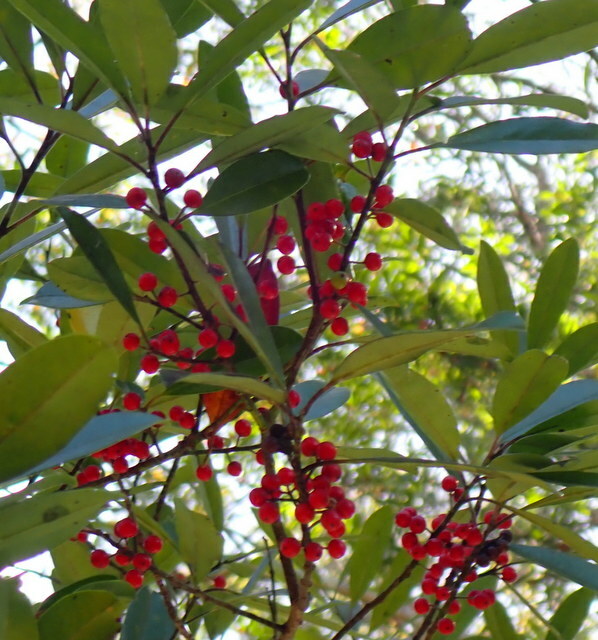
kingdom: Plantae
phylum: Tracheophyta
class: Magnoliopsida
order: Aquifoliales
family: Aquifoliaceae
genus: Ilex
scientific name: Ilex cassine
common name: Dahoon
